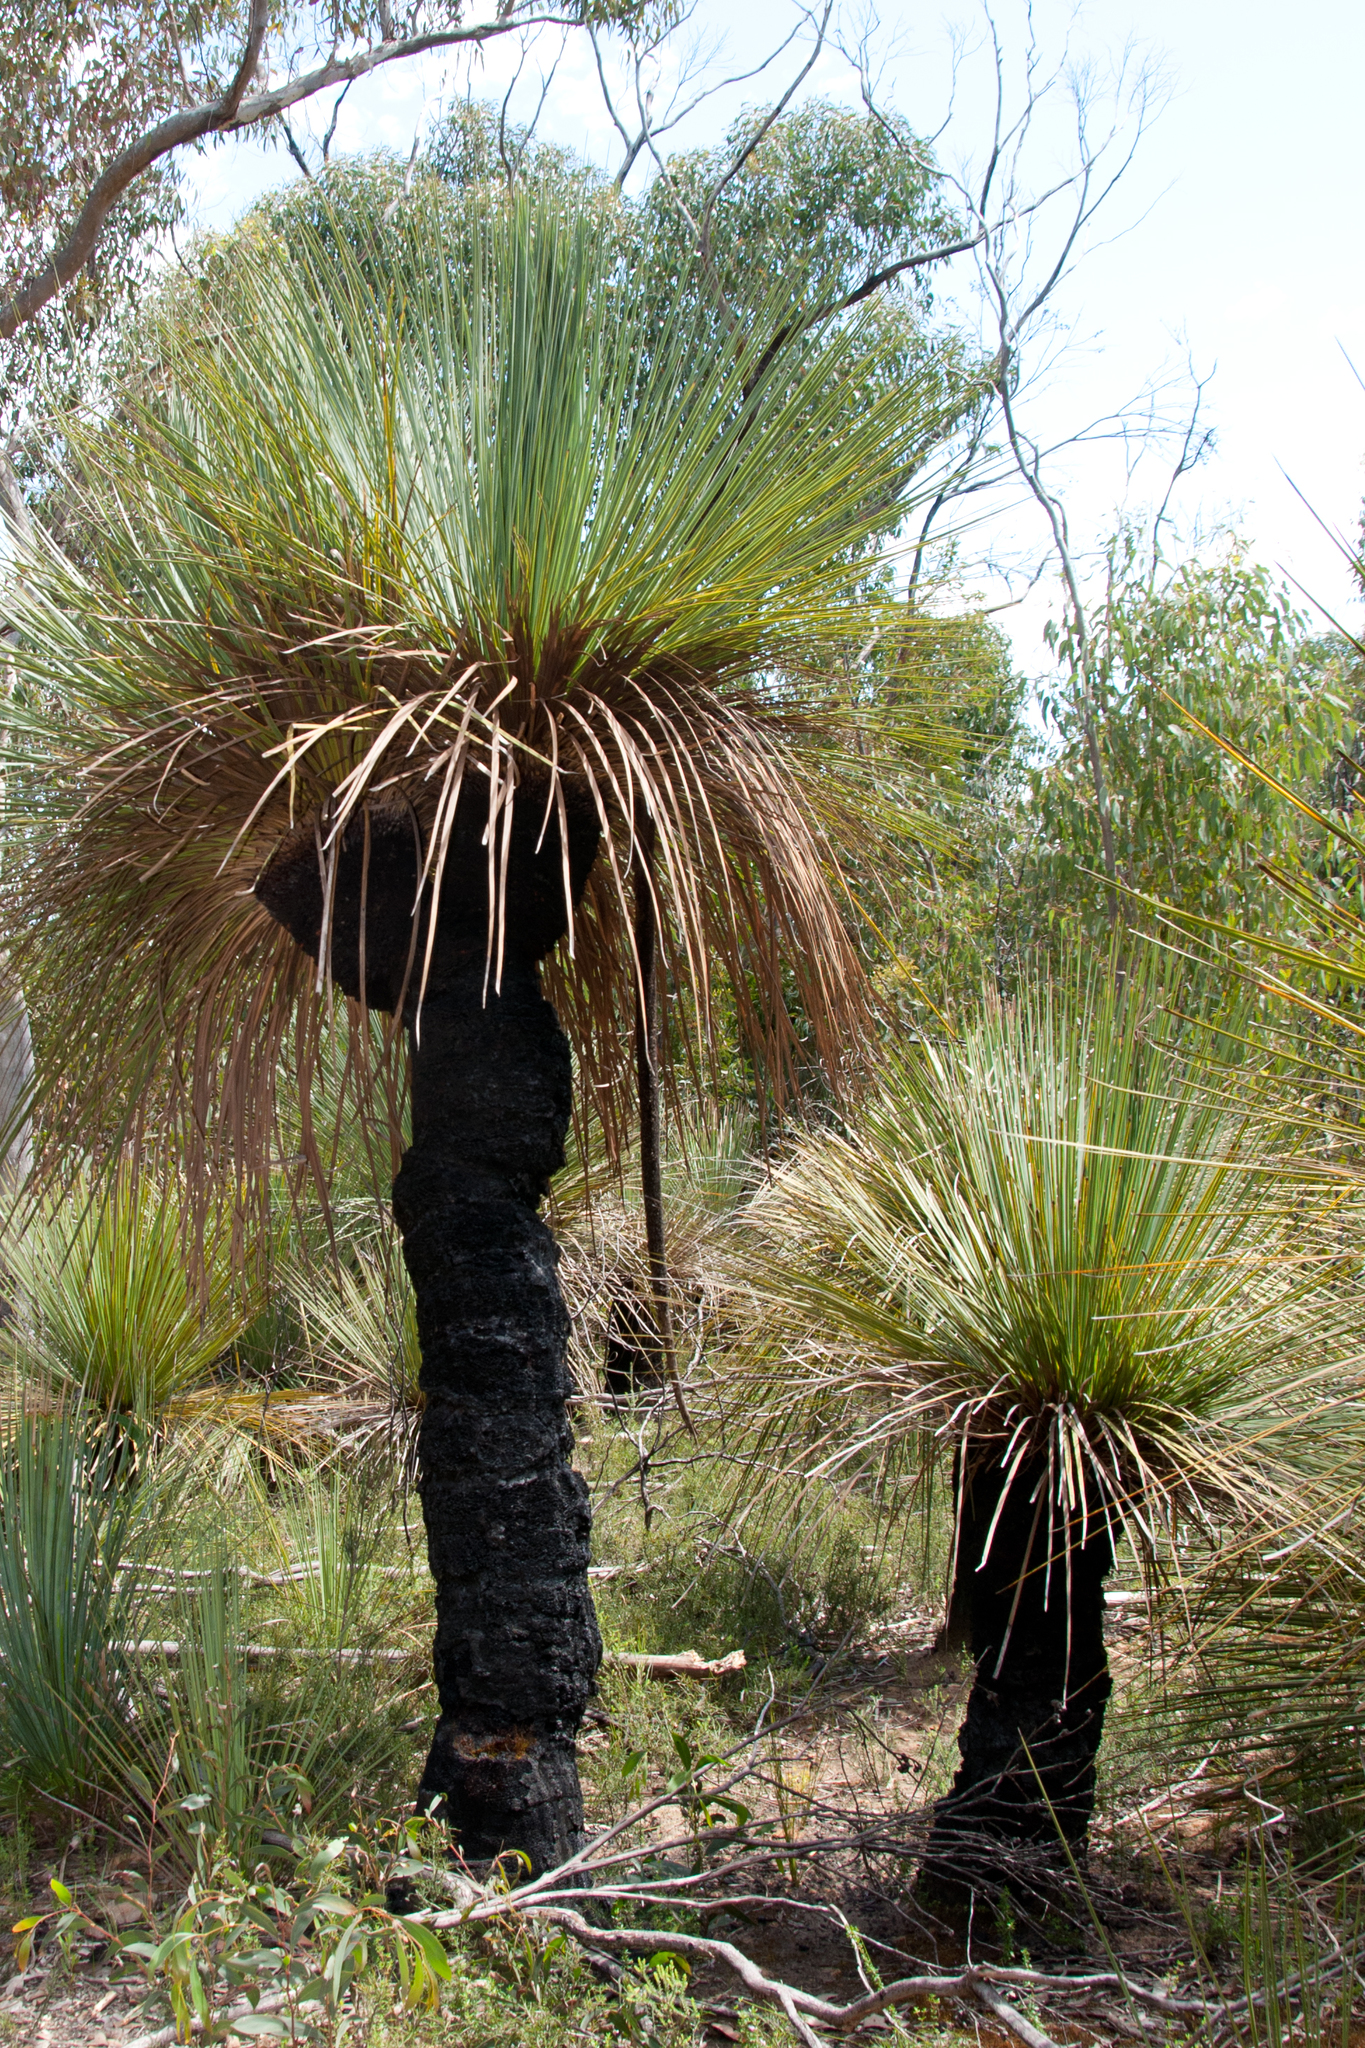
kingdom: Plantae
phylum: Tracheophyta
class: Liliopsida
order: Asparagales
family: Asphodelaceae
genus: Xanthorrhoea
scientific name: Xanthorrhoea semiplana
